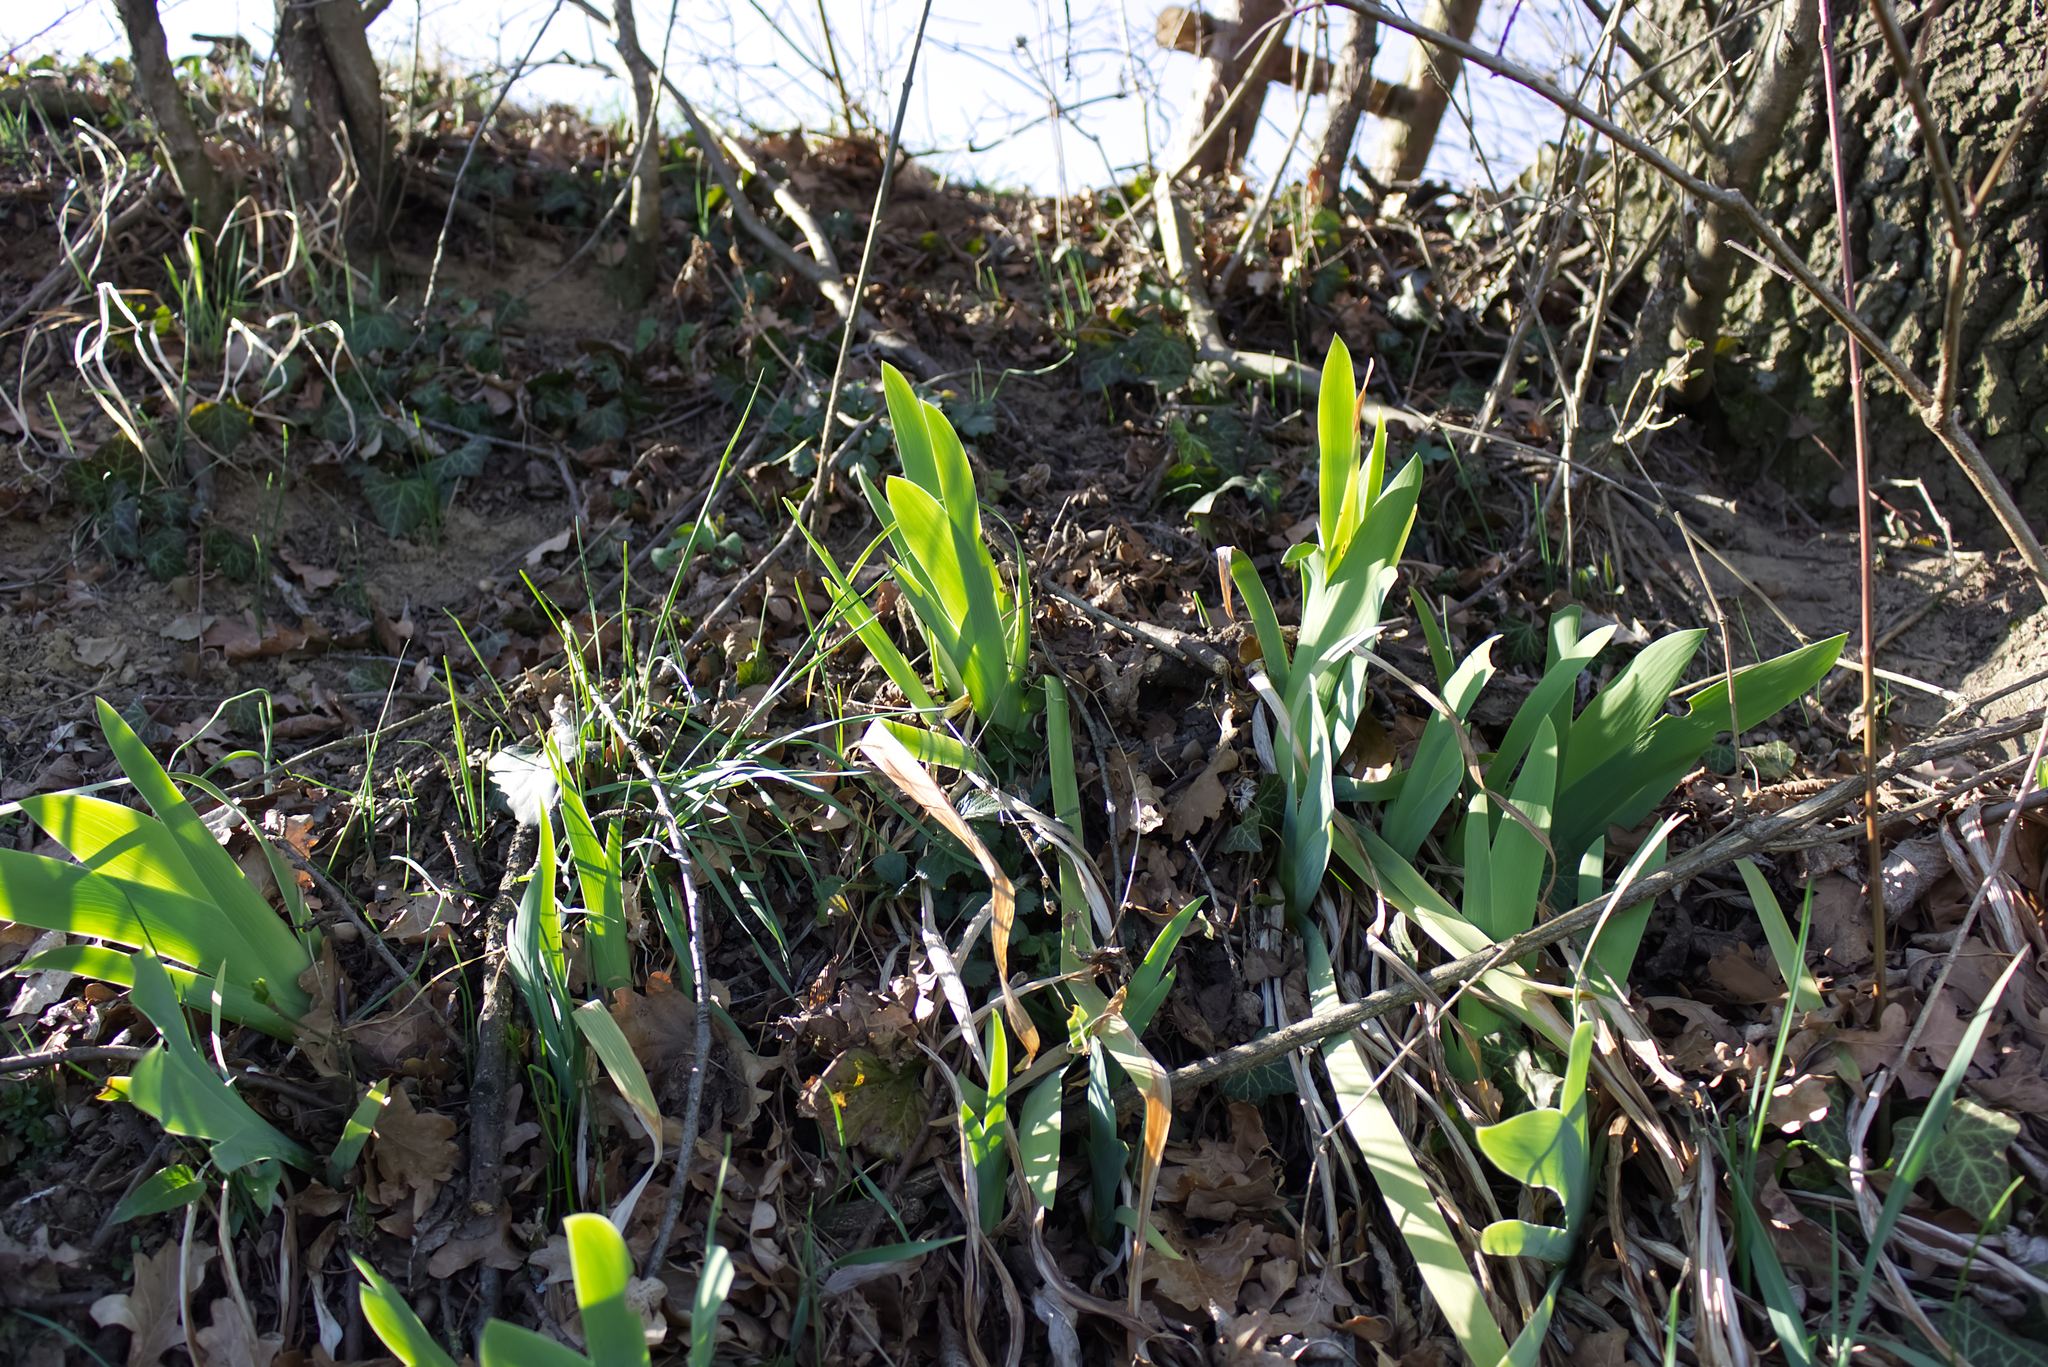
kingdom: Plantae
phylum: Tracheophyta
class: Liliopsida
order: Asparagales
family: Iridaceae
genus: Iris
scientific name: Iris germanica
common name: German iris
